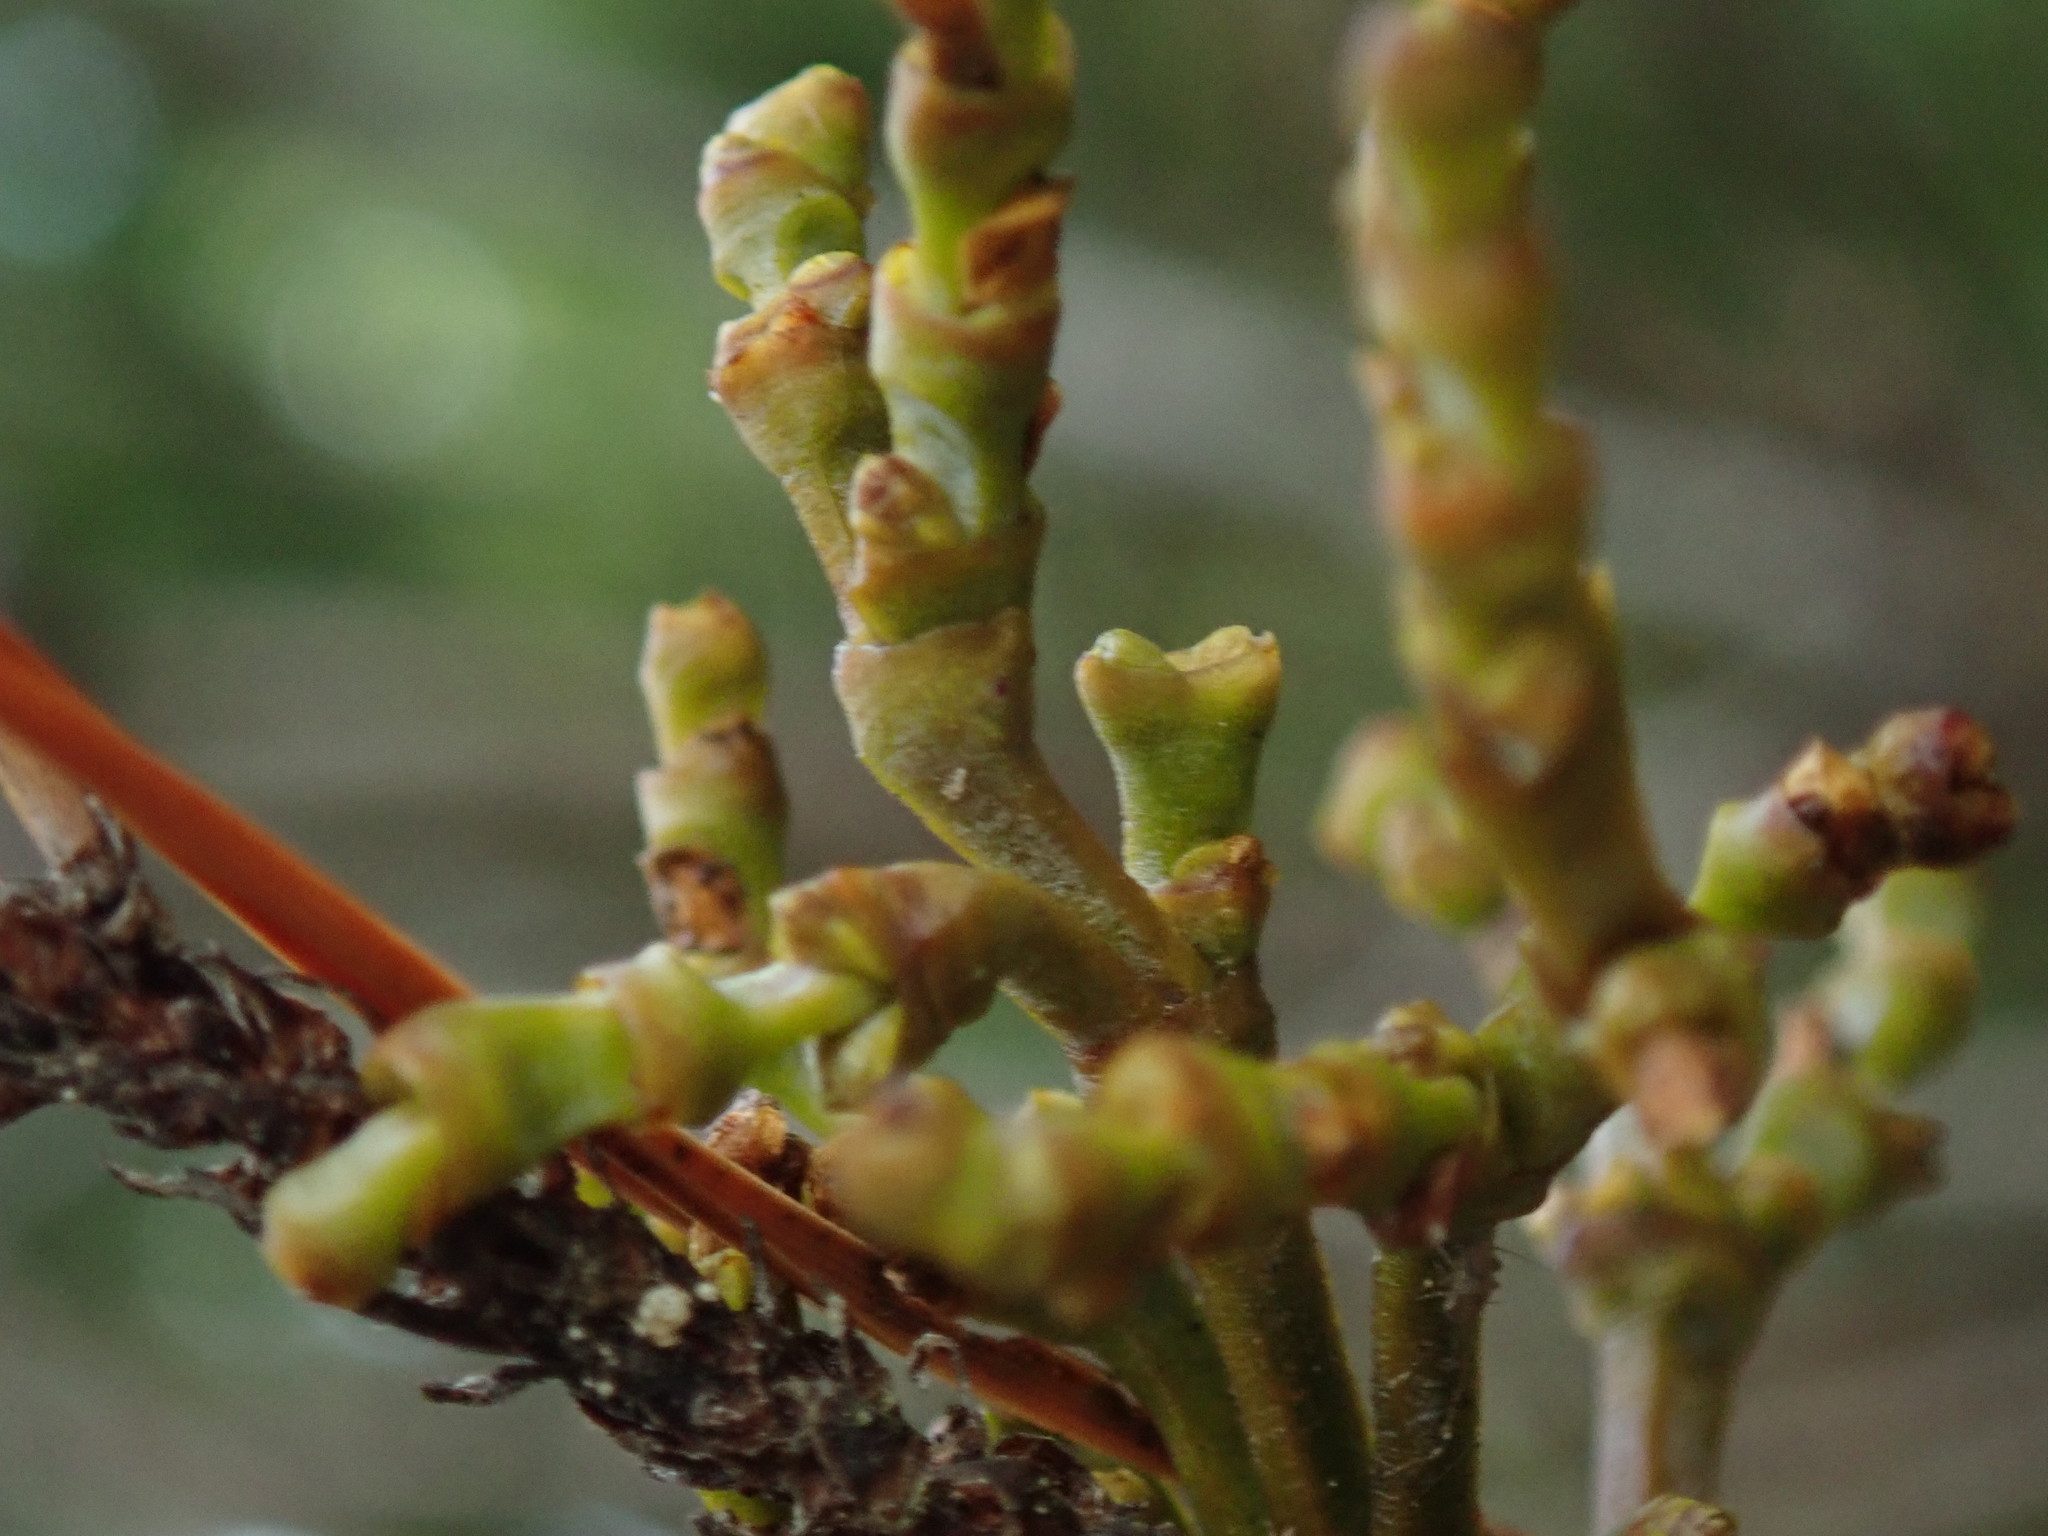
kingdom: Plantae
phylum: Tracheophyta
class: Magnoliopsida
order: Santalales
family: Viscaceae
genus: Arceuthobium
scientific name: Arceuthobium campylopodum
